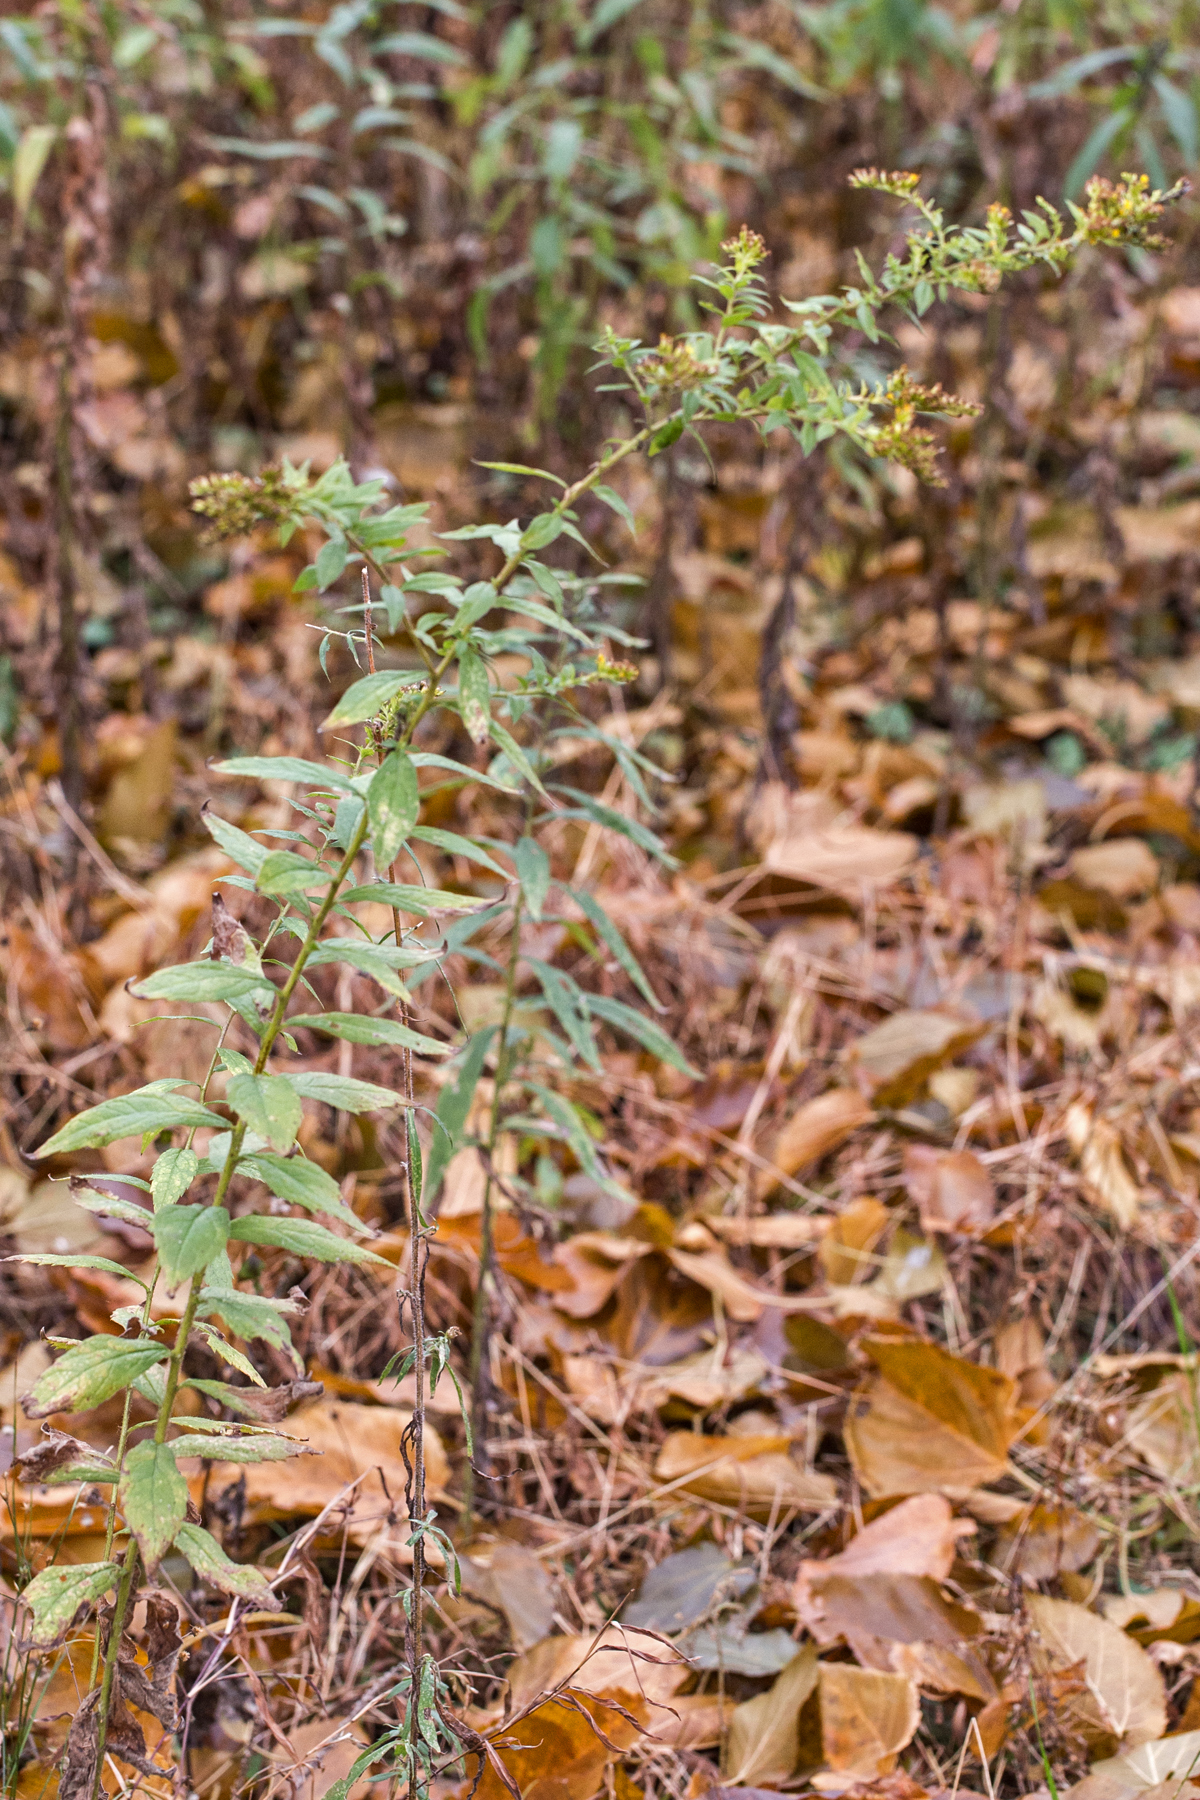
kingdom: Plantae
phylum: Tracheophyta
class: Magnoliopsida
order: Asterales
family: Asteraceae
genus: Solidago
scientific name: Solidago rugosa
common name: Rough-stemmed goldenrod
